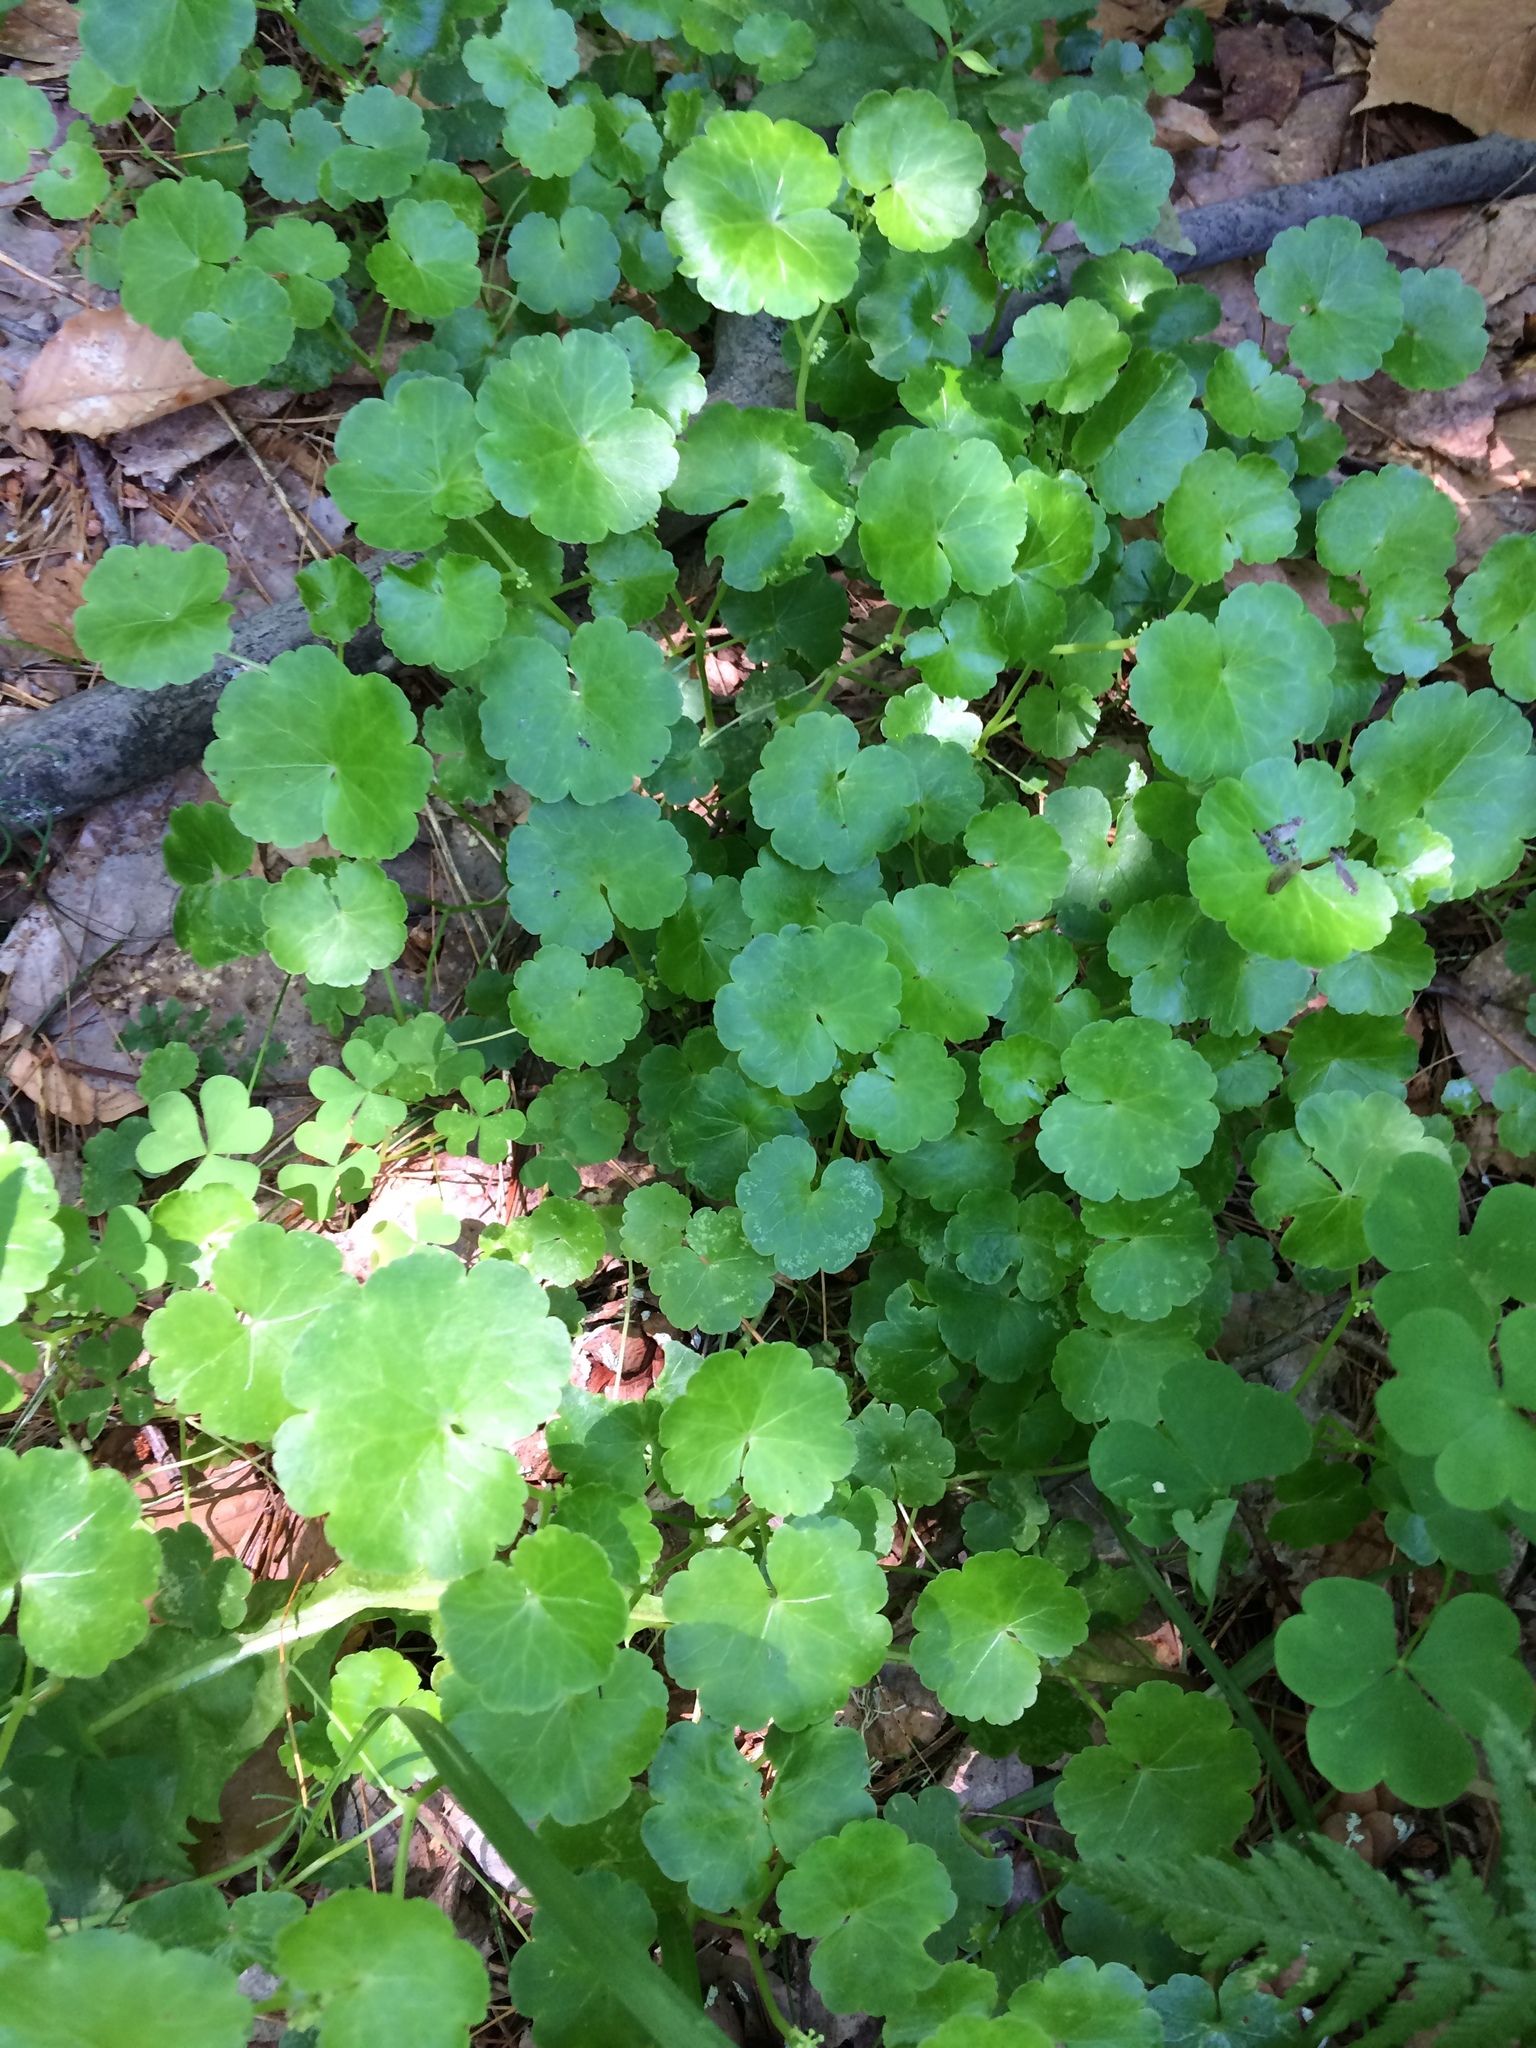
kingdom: Plantae
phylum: Tracheophyta
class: Magnoliopsida
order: Apiales
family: Araliaceae
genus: Hydrocotyle
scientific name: Hydrocotyle americana
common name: American water-pennywort
